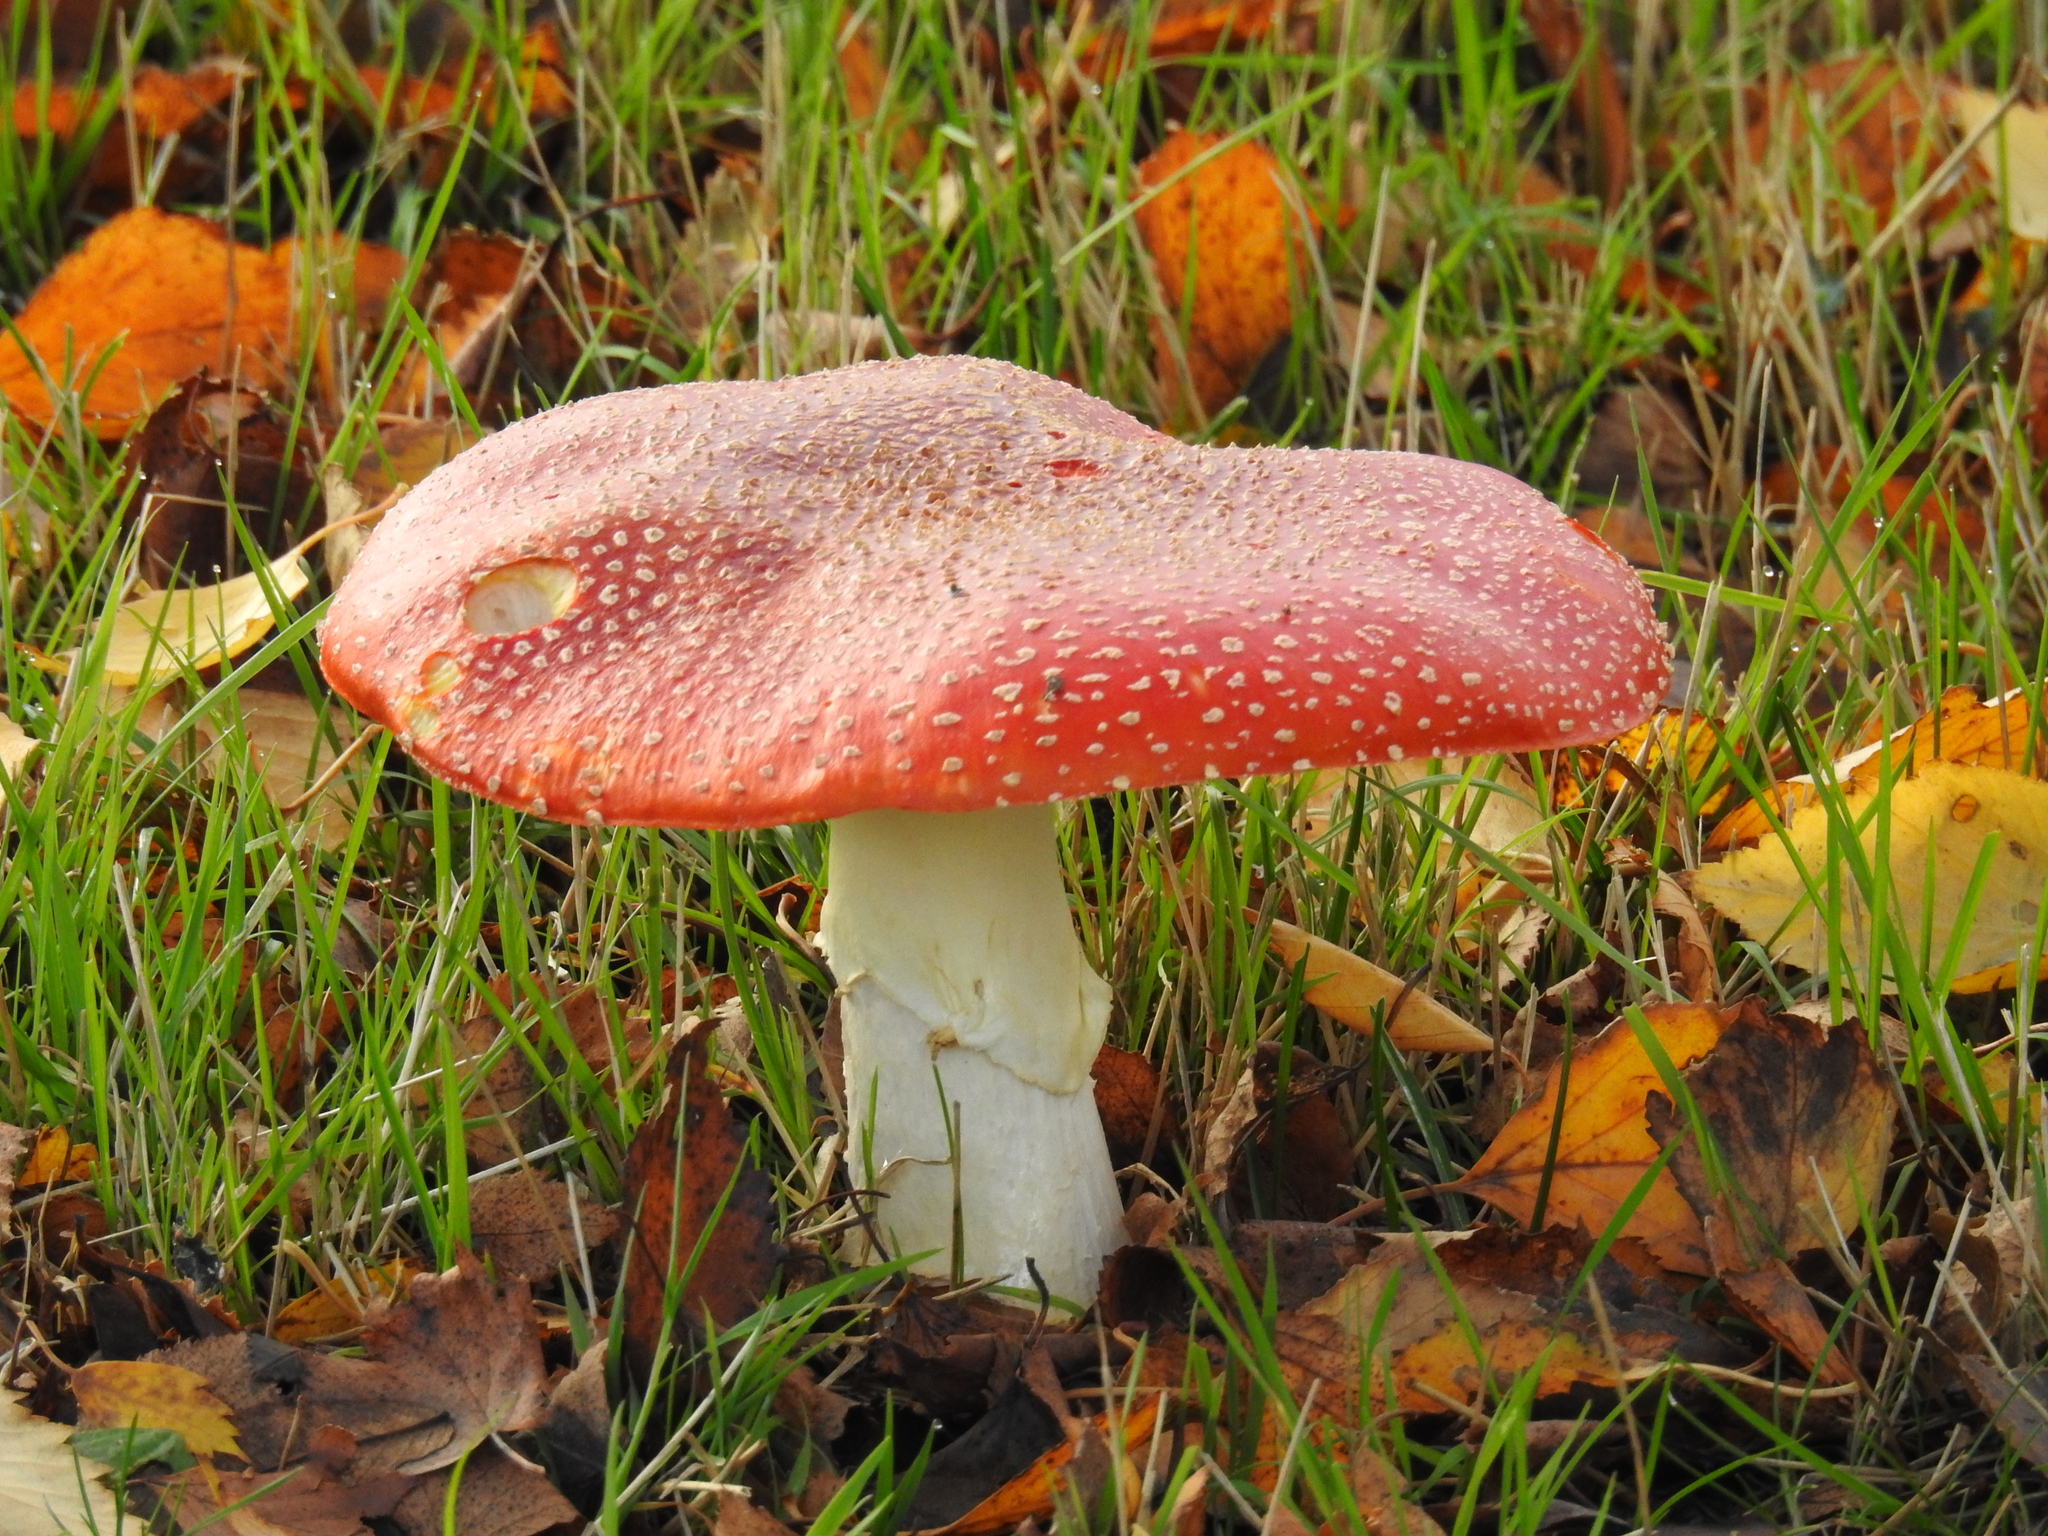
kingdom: Fungi
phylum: Basidiomycota
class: Agaricomycetes
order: Agaricales
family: Amanitaceae
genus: Amanita
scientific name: Amanita muscaria
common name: Fly agaric
